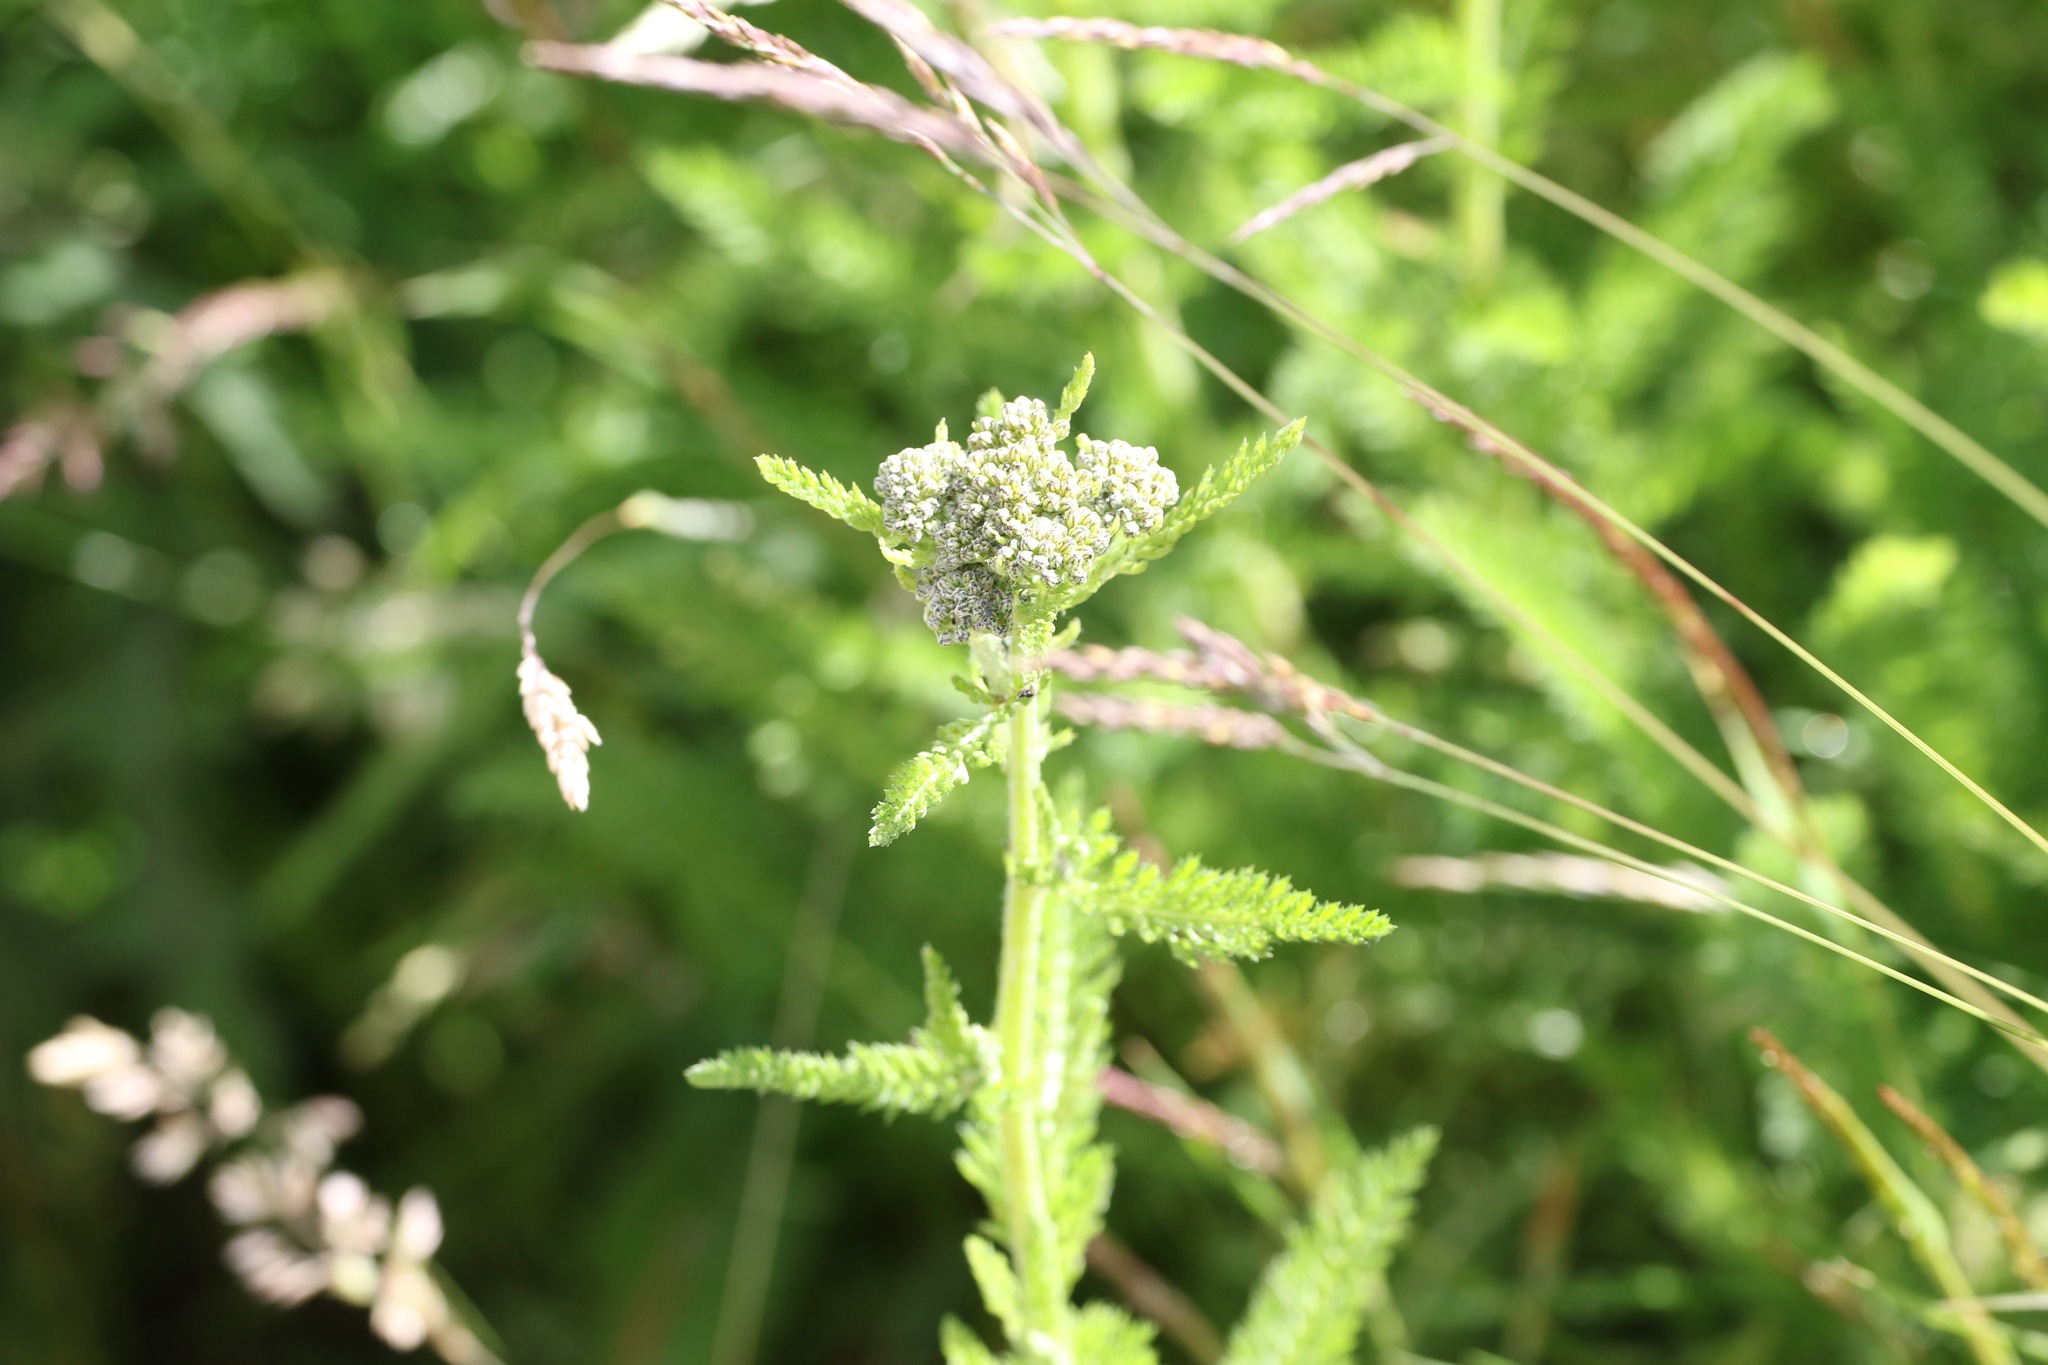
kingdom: Plantae
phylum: Tracheophyta
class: Magnoliopsida
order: Asterales
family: Asteraceae
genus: Achillea
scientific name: Achillea millefolium
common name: Yarrow
